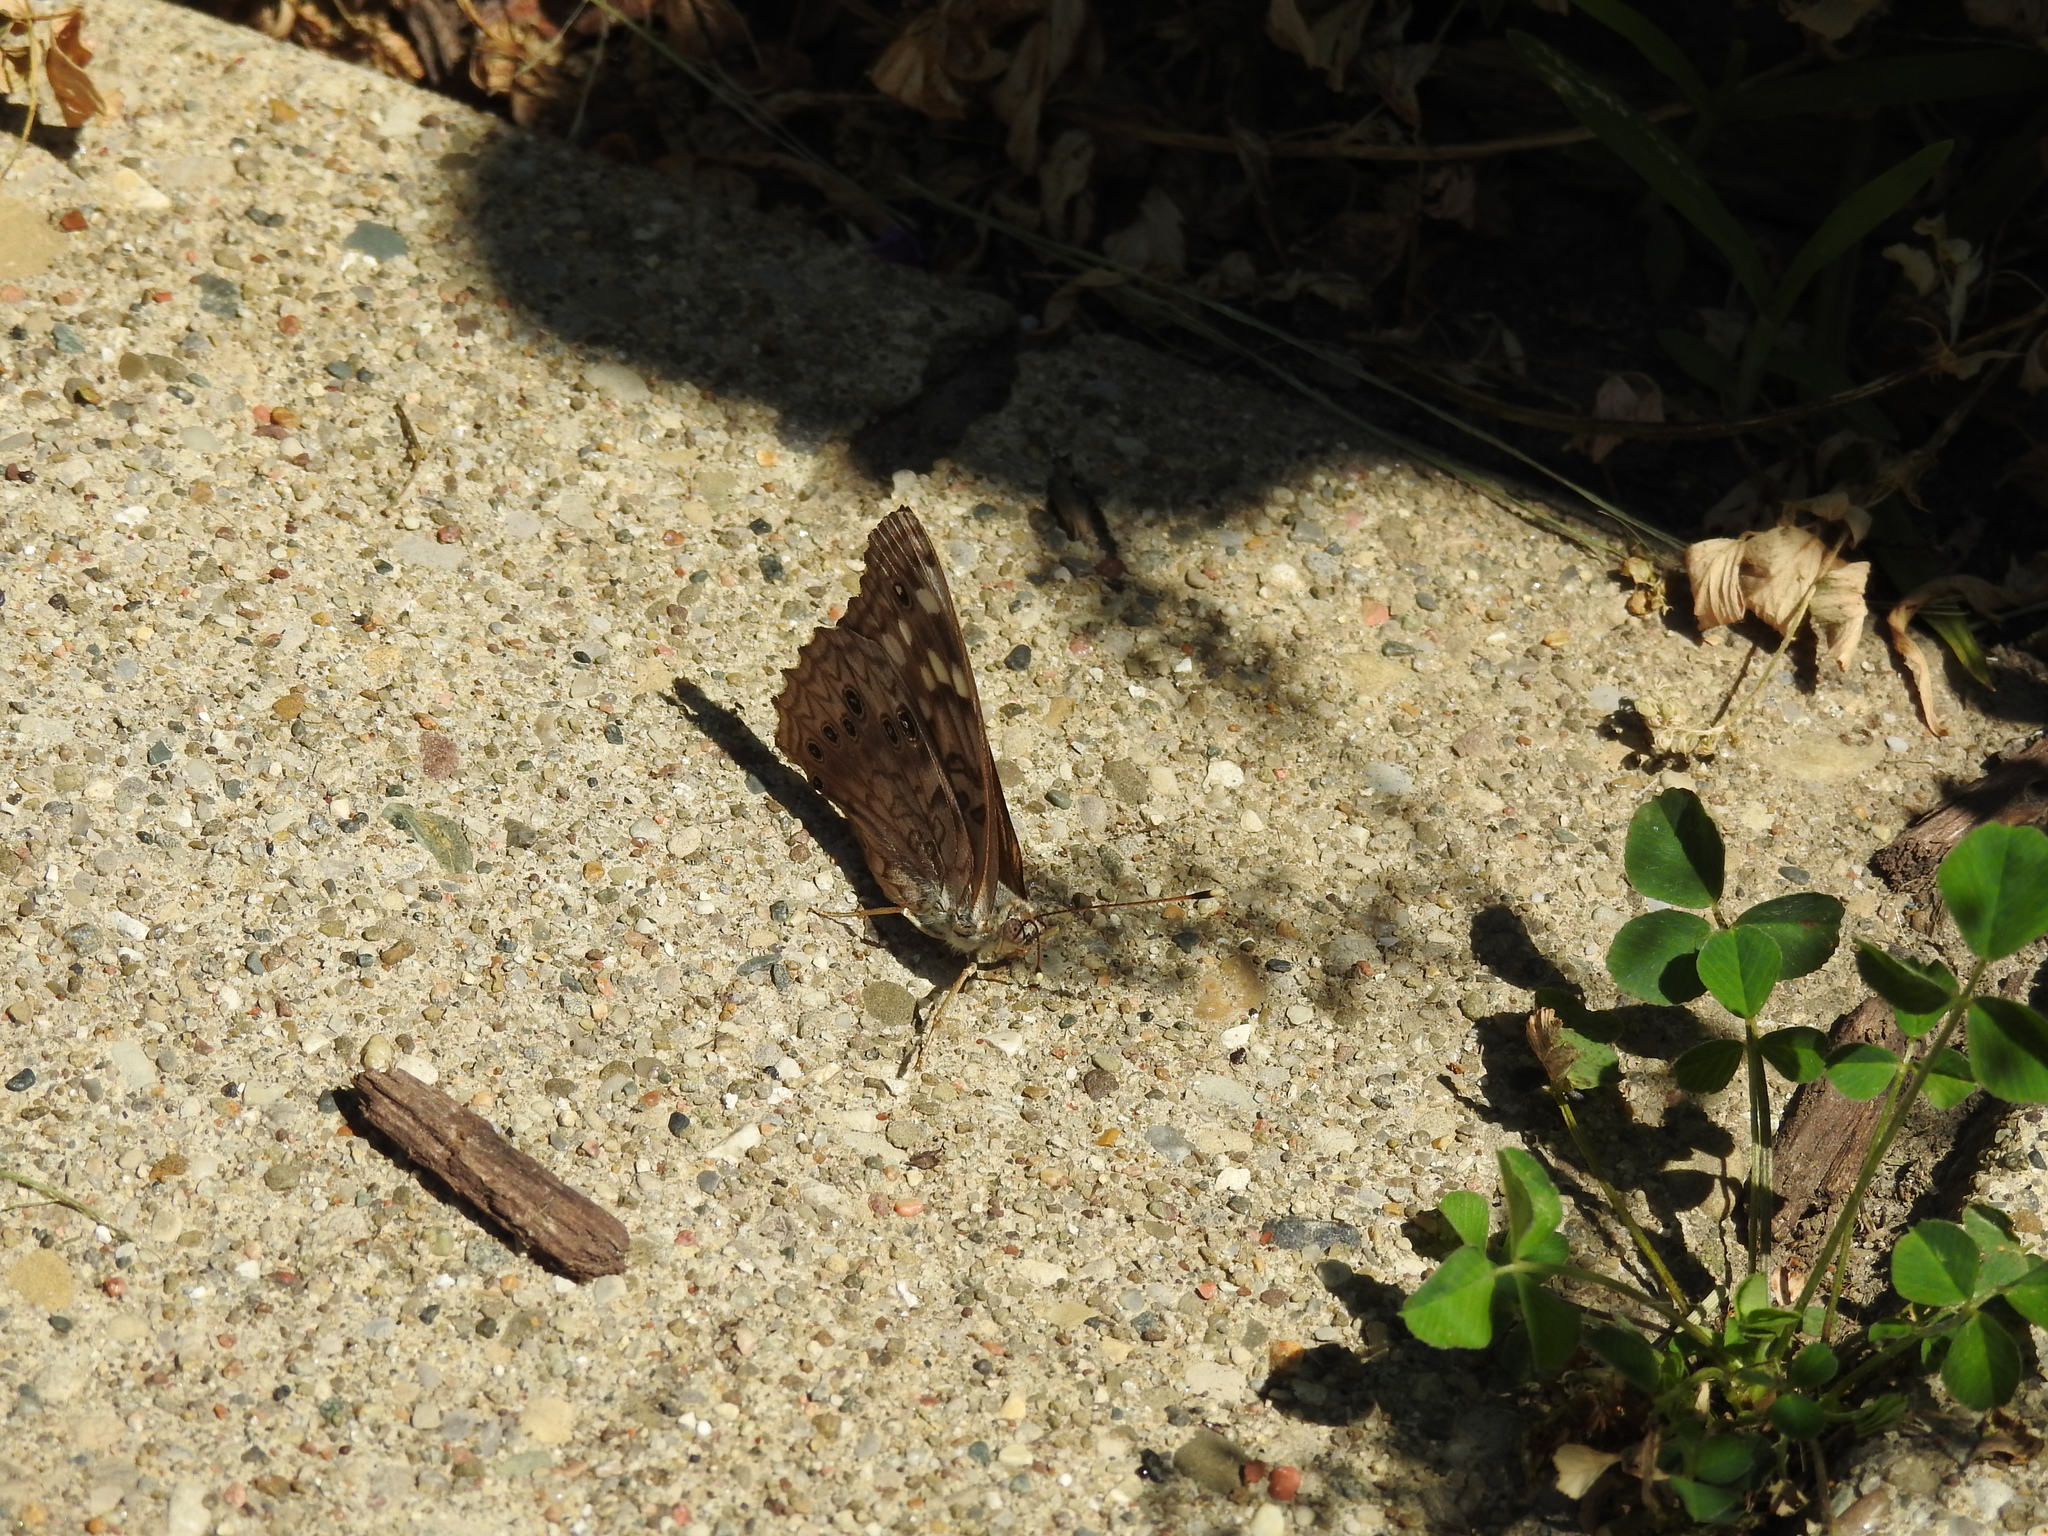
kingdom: Animalia
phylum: Arthropoda
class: Insecta
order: Lepidoptera
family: Nymphalidae
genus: Asterocampa
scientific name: Asterocampa celtis
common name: Hackberry emperor
